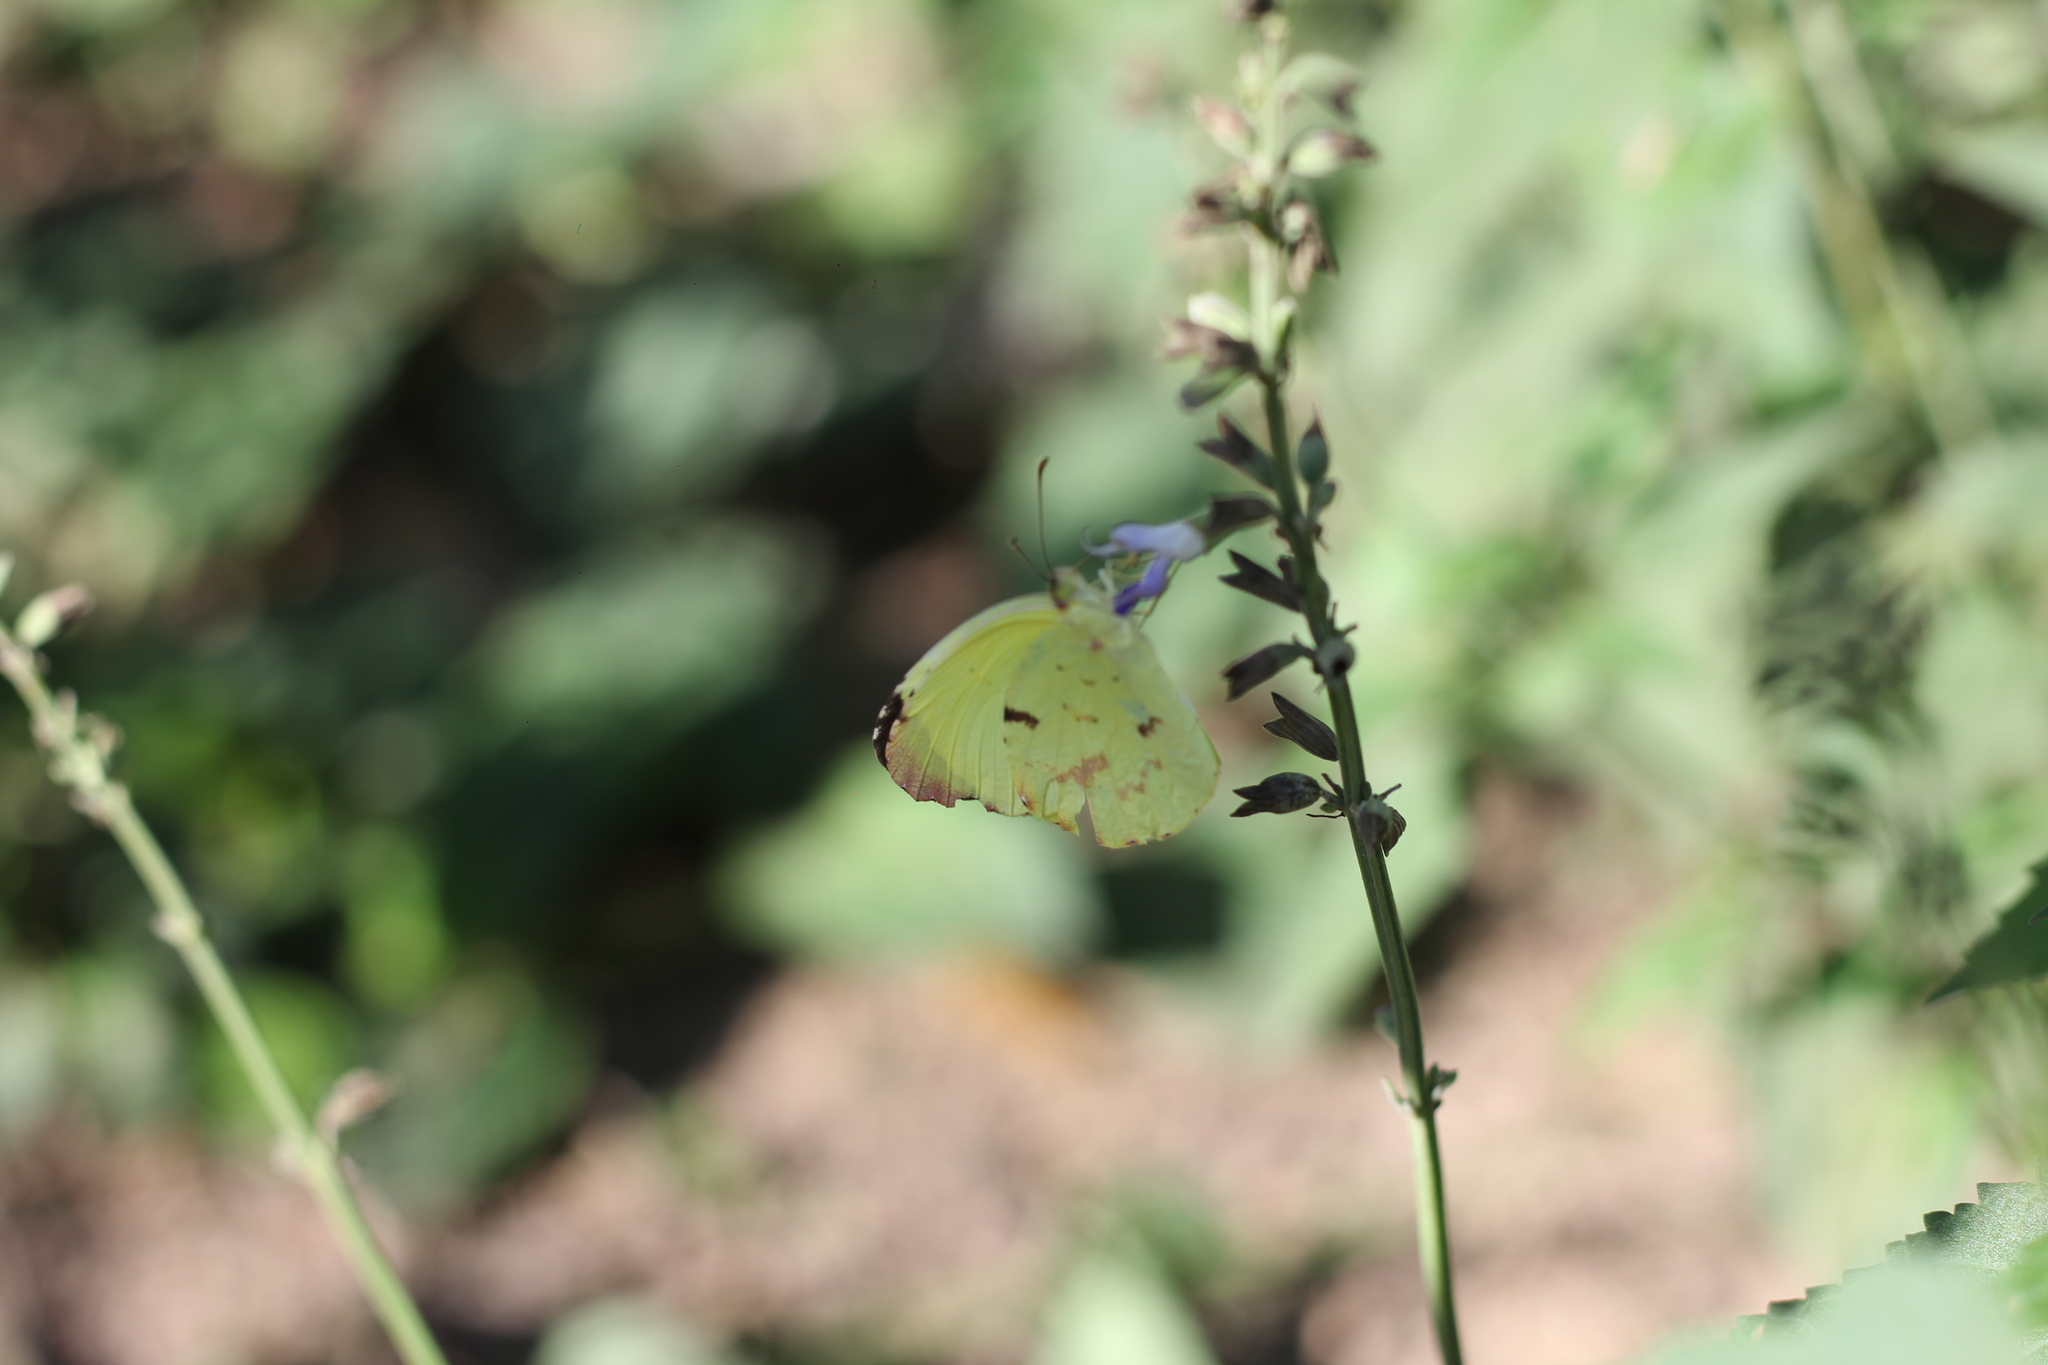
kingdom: Animalia
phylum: Arthropoda
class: Insecta
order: Lepidoptera
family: Pieridae
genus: Teriocolias
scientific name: Teriocolias
